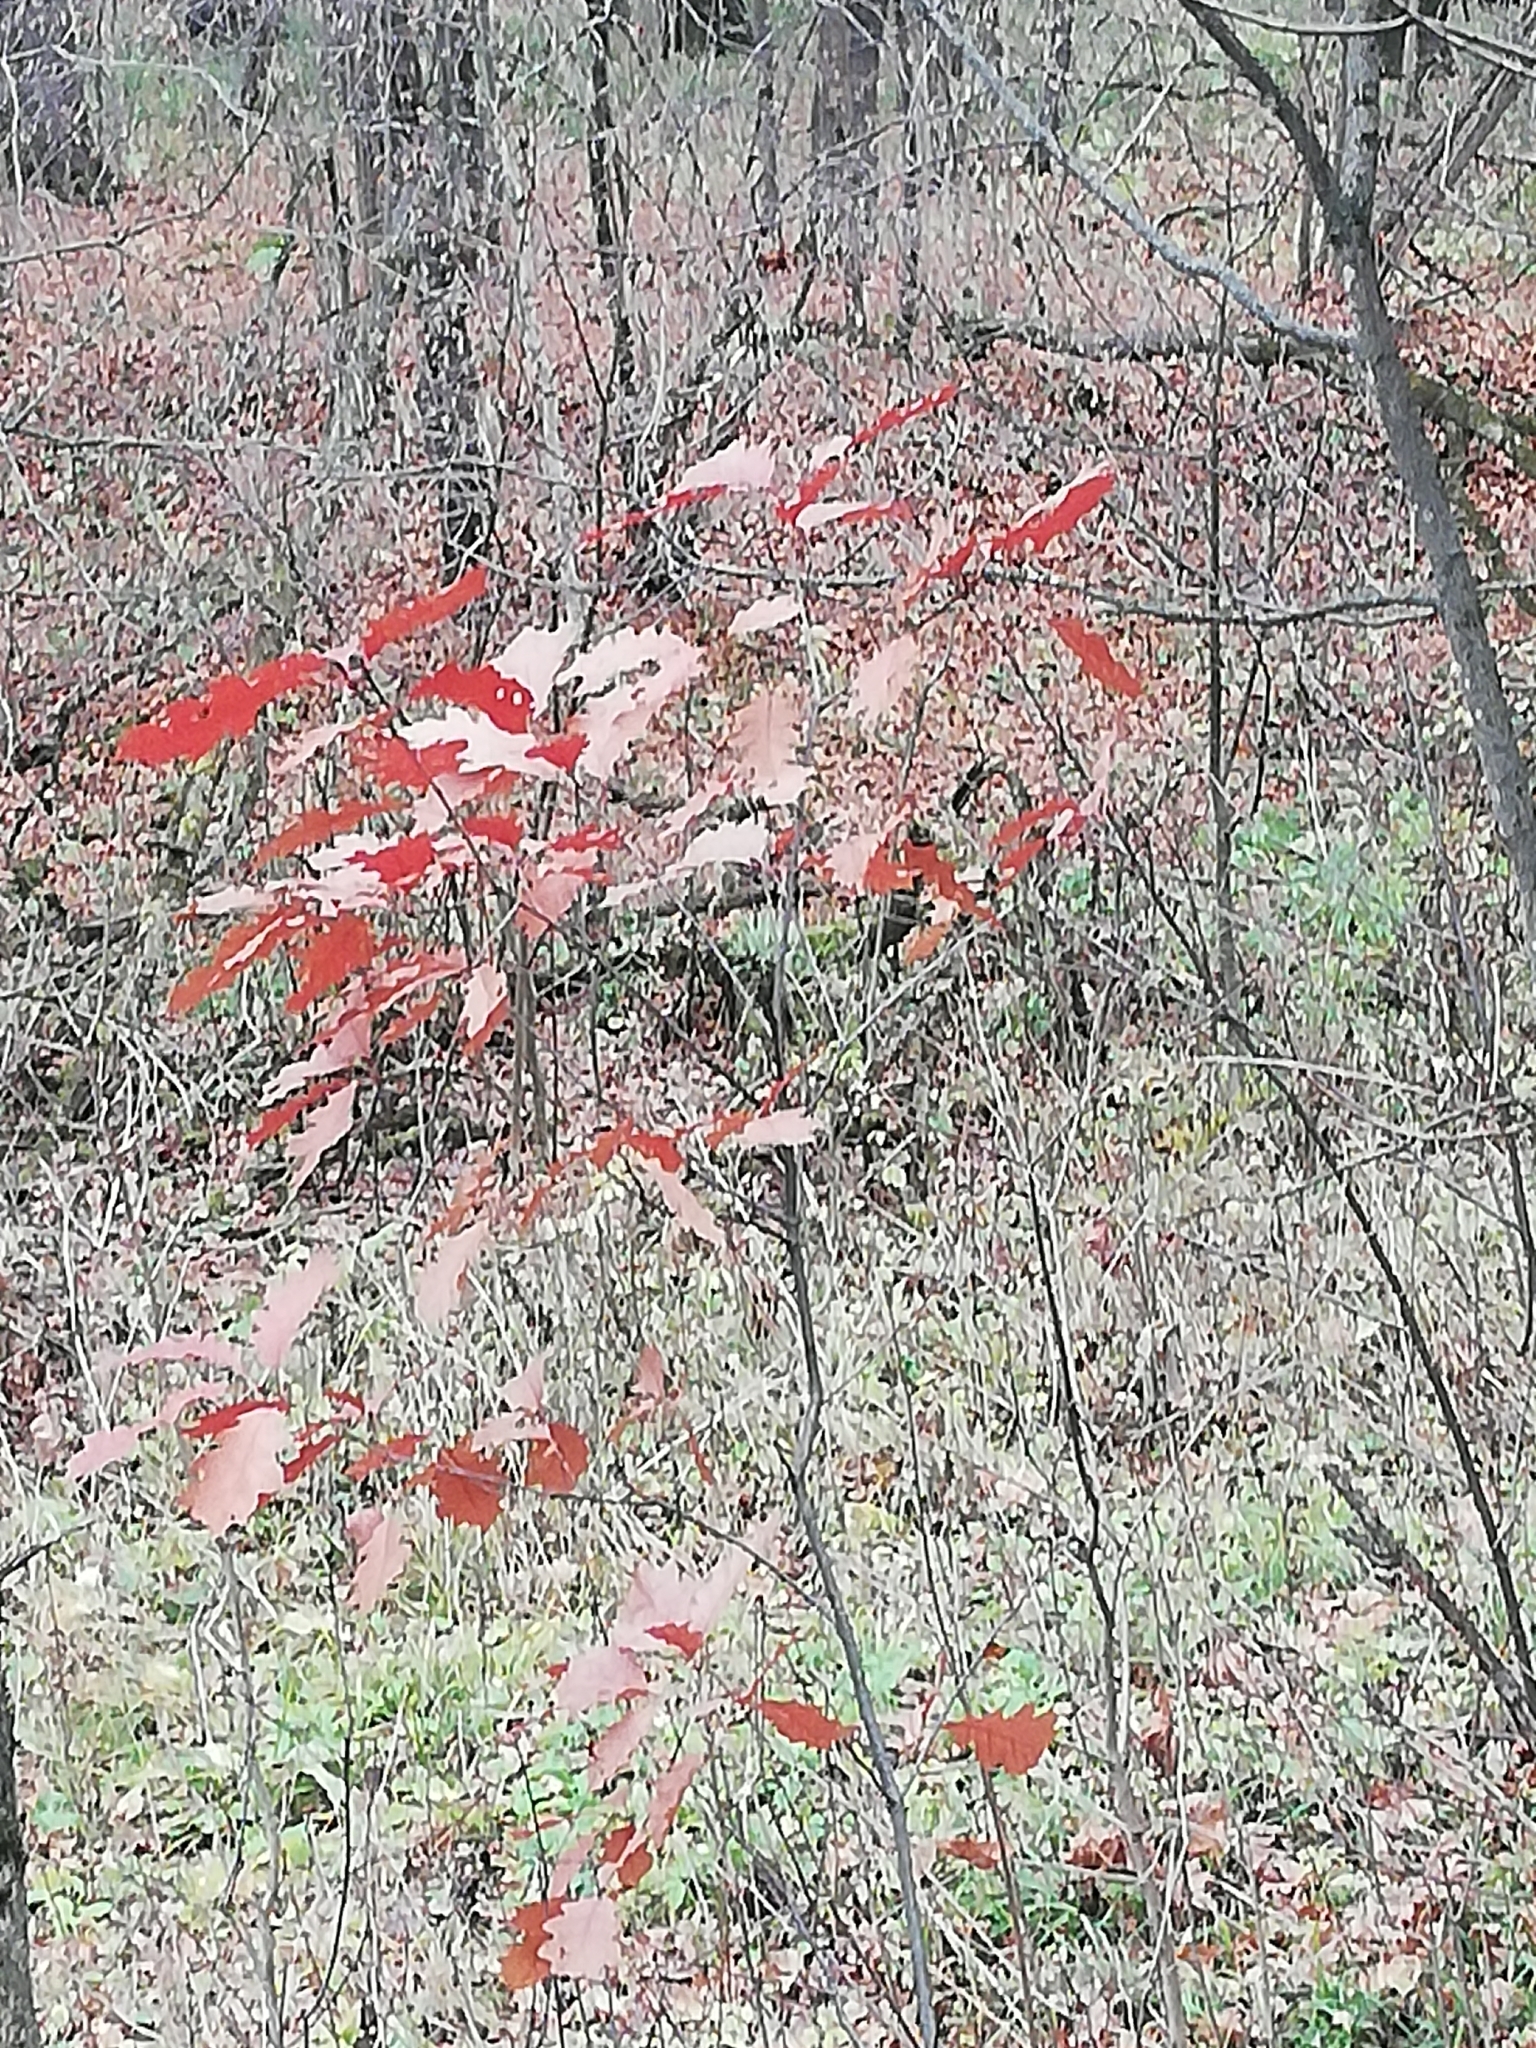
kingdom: Plantae
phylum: Tracheophyta
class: Magnoliopsida
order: Fagales
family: Fagaceae
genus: Quercus
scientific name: Quercus rubra
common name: Red oak
